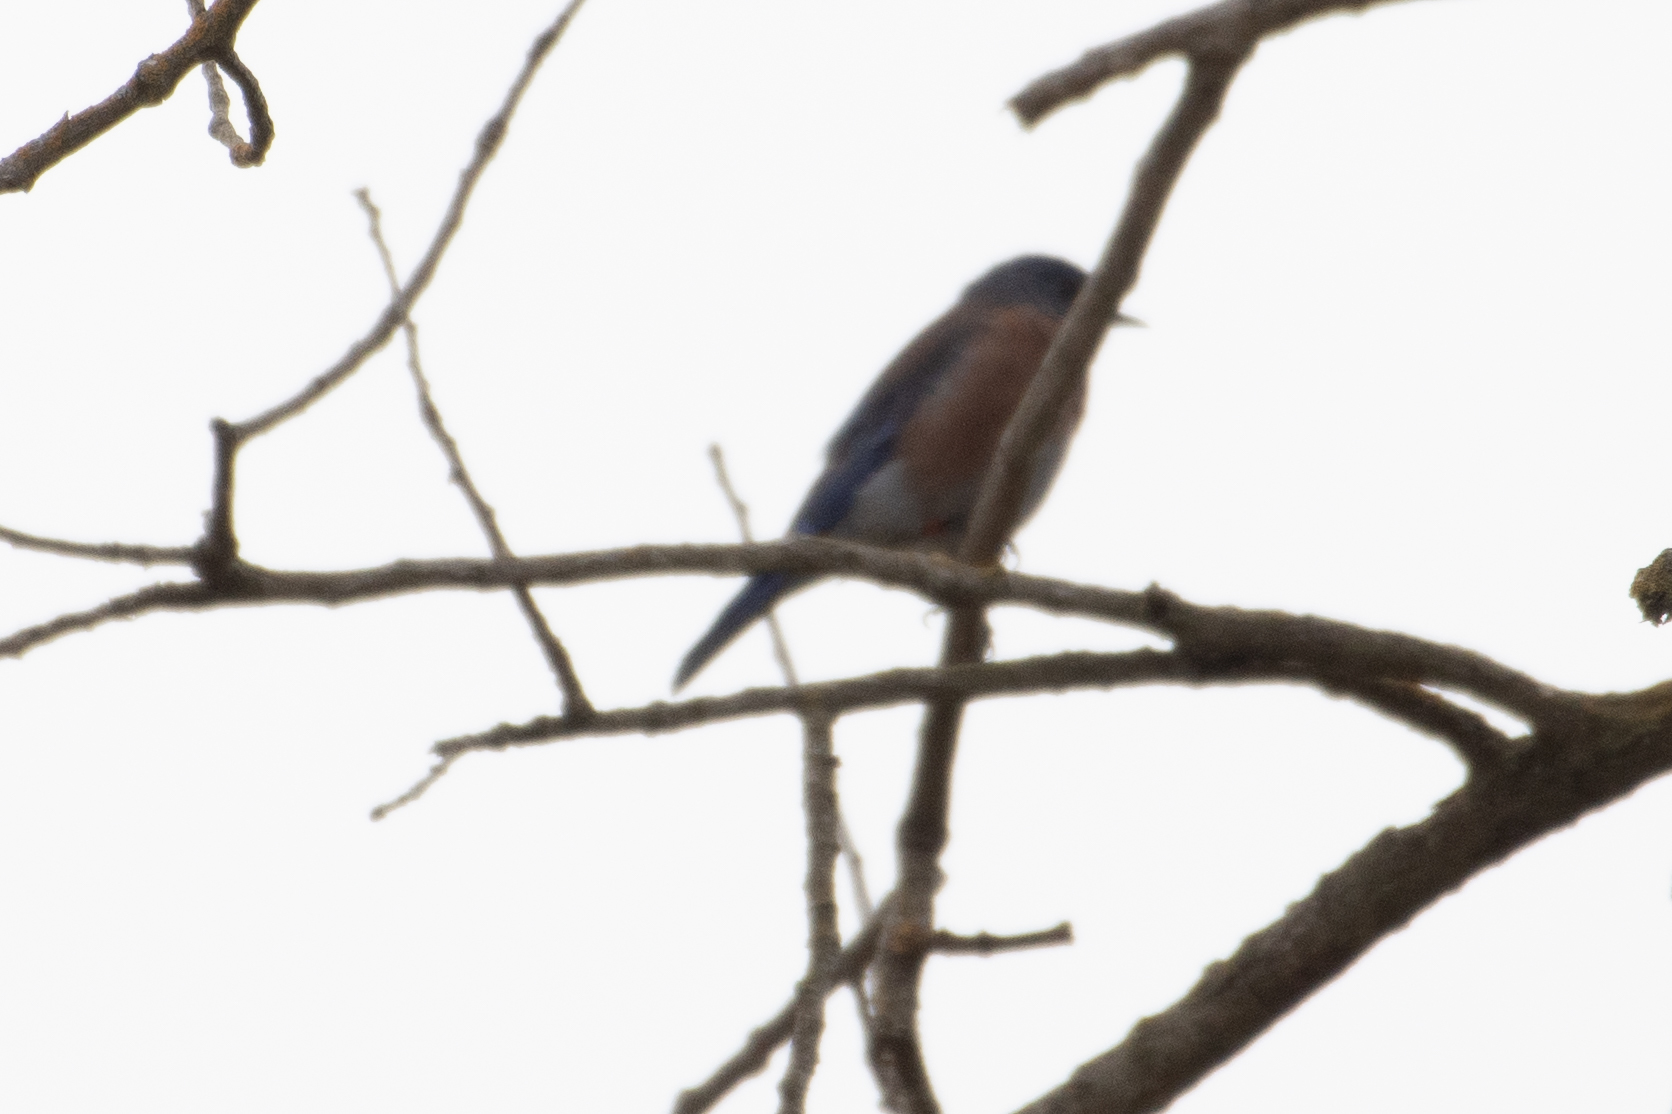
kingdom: Animalia
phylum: Chordata
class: Aves
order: Passeriformes
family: Turdidae
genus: Sialia
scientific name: Sialia mexicana
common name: Western bluebird
